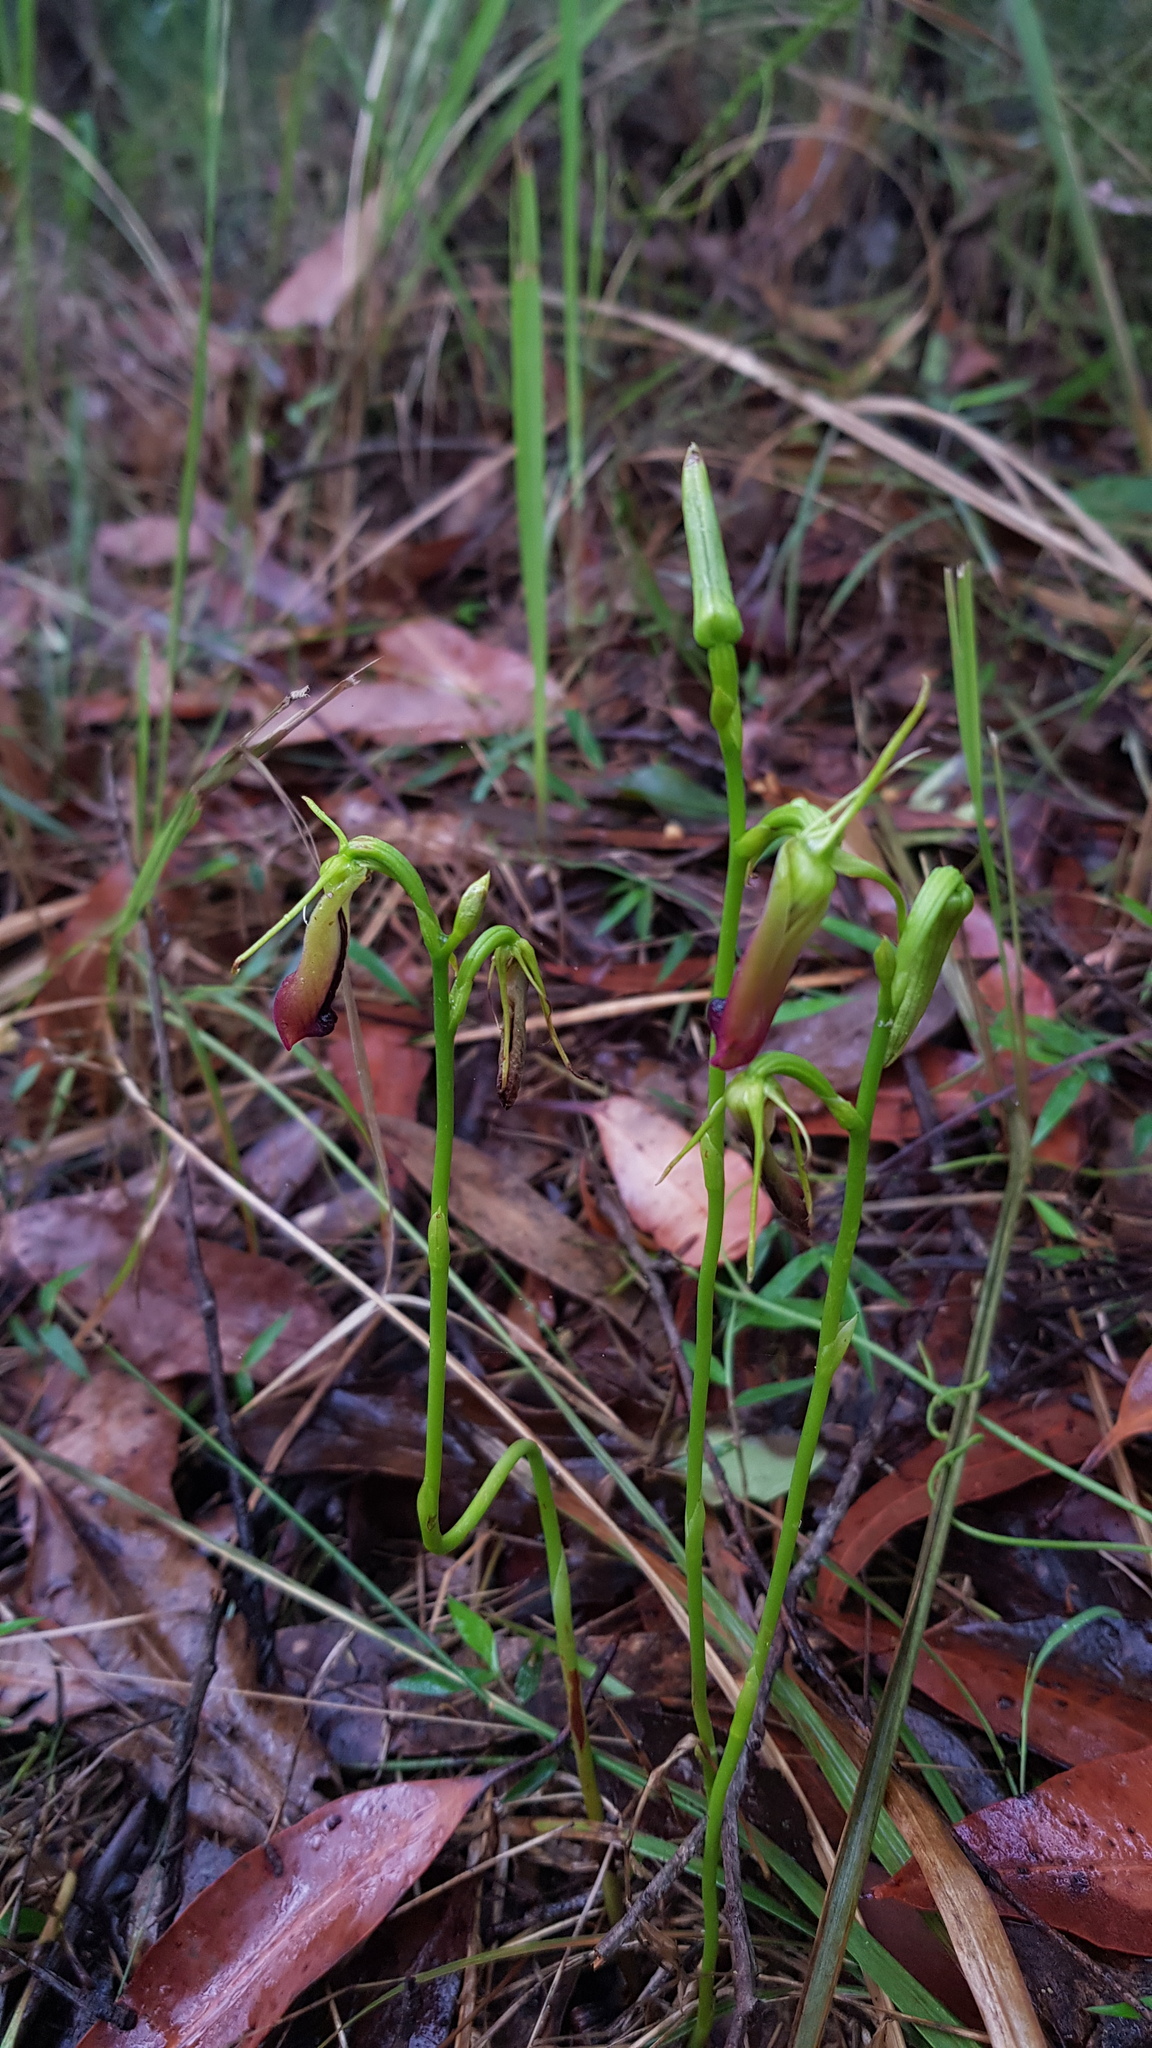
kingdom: Plantae
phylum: Tracheophyta
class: Liliopsida
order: Asparagales
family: Orchidaceae
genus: Cryptostylis
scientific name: Cryptostylis subulata
